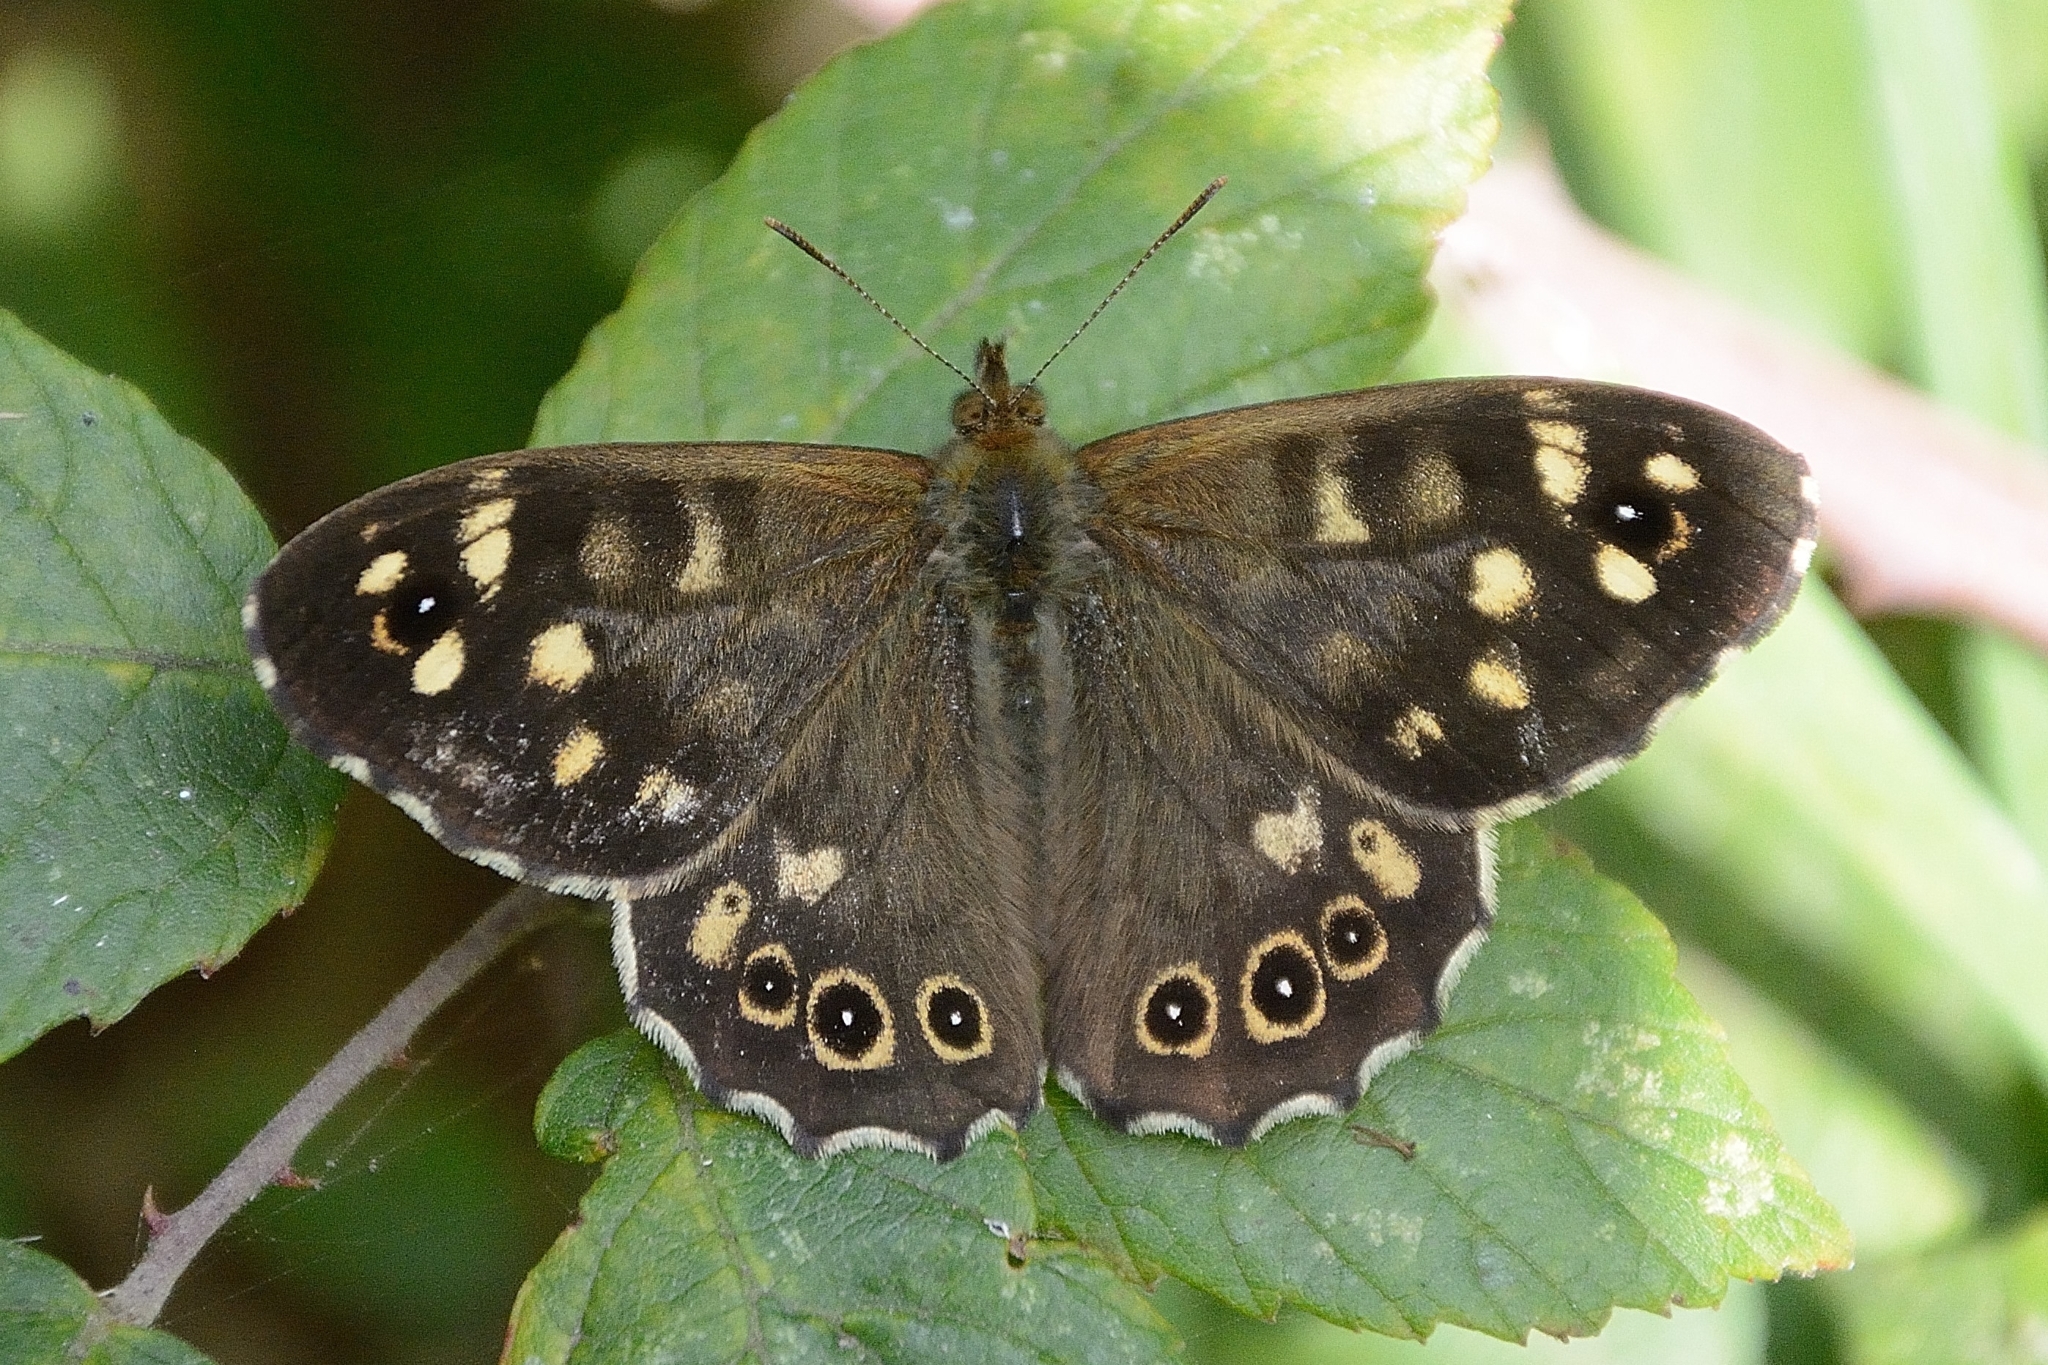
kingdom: Animalia
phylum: Arthropoda
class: Insecta
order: Lepidoptera
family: Nymphalidae
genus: Pararge
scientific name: Pararge aegeria
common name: Speckled wood
